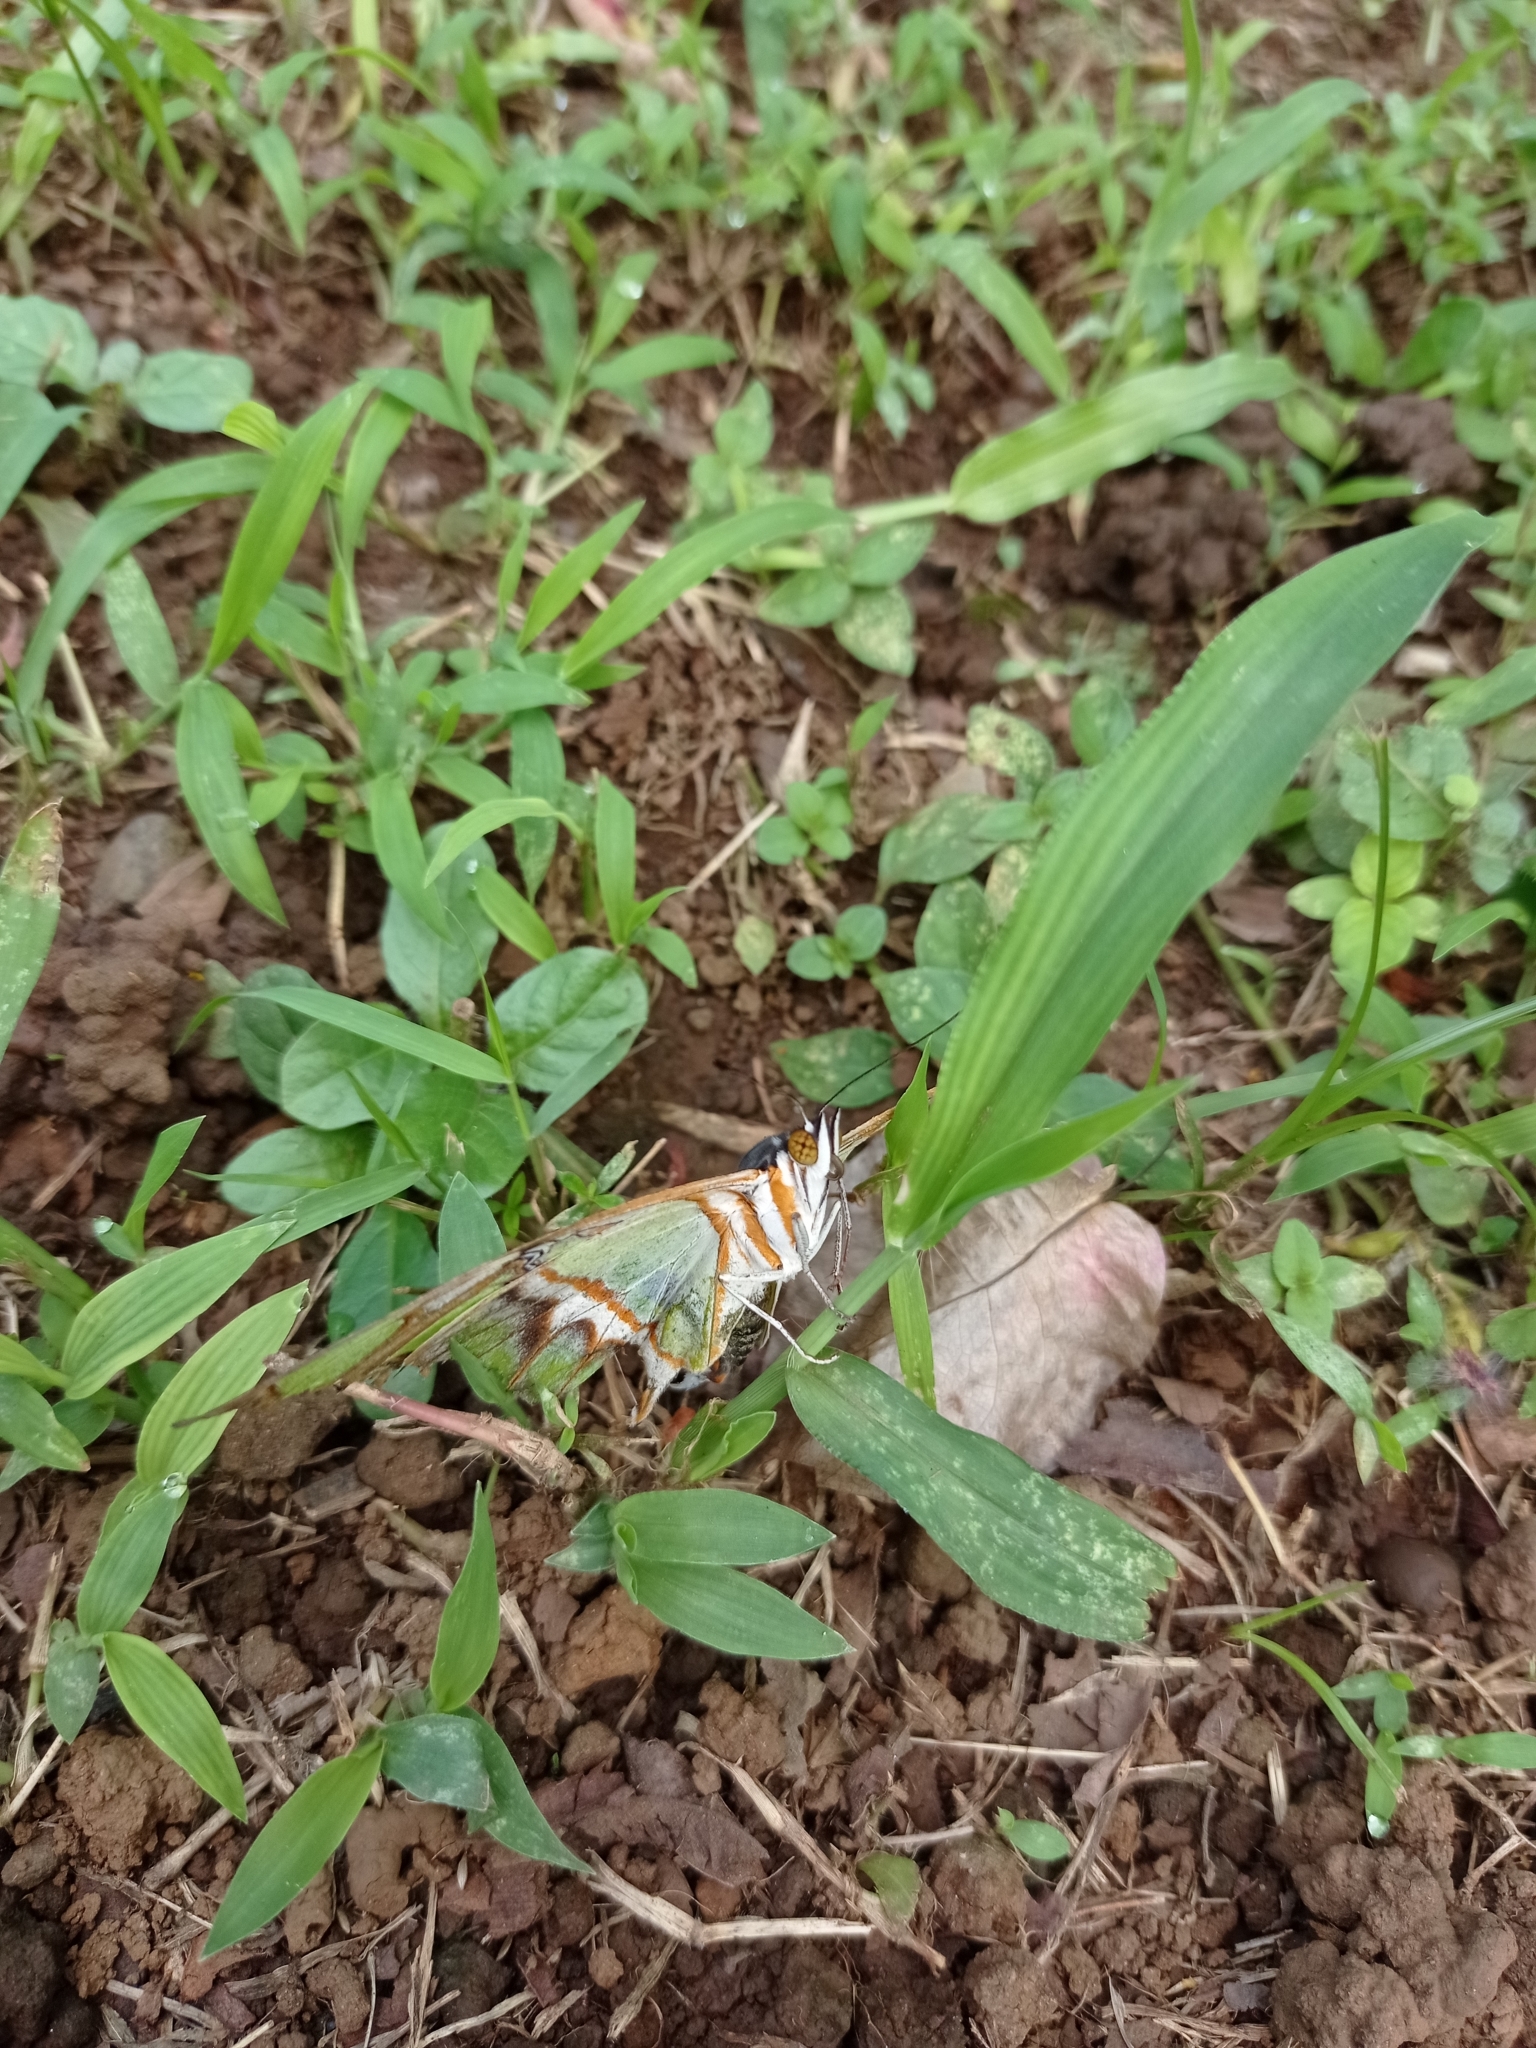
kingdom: Animalia
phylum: Arthropoda
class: Insecta
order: Lepidoptera
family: Nymphalidae
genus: Siproeta
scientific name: Siproeta stelenes
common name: Malachite
